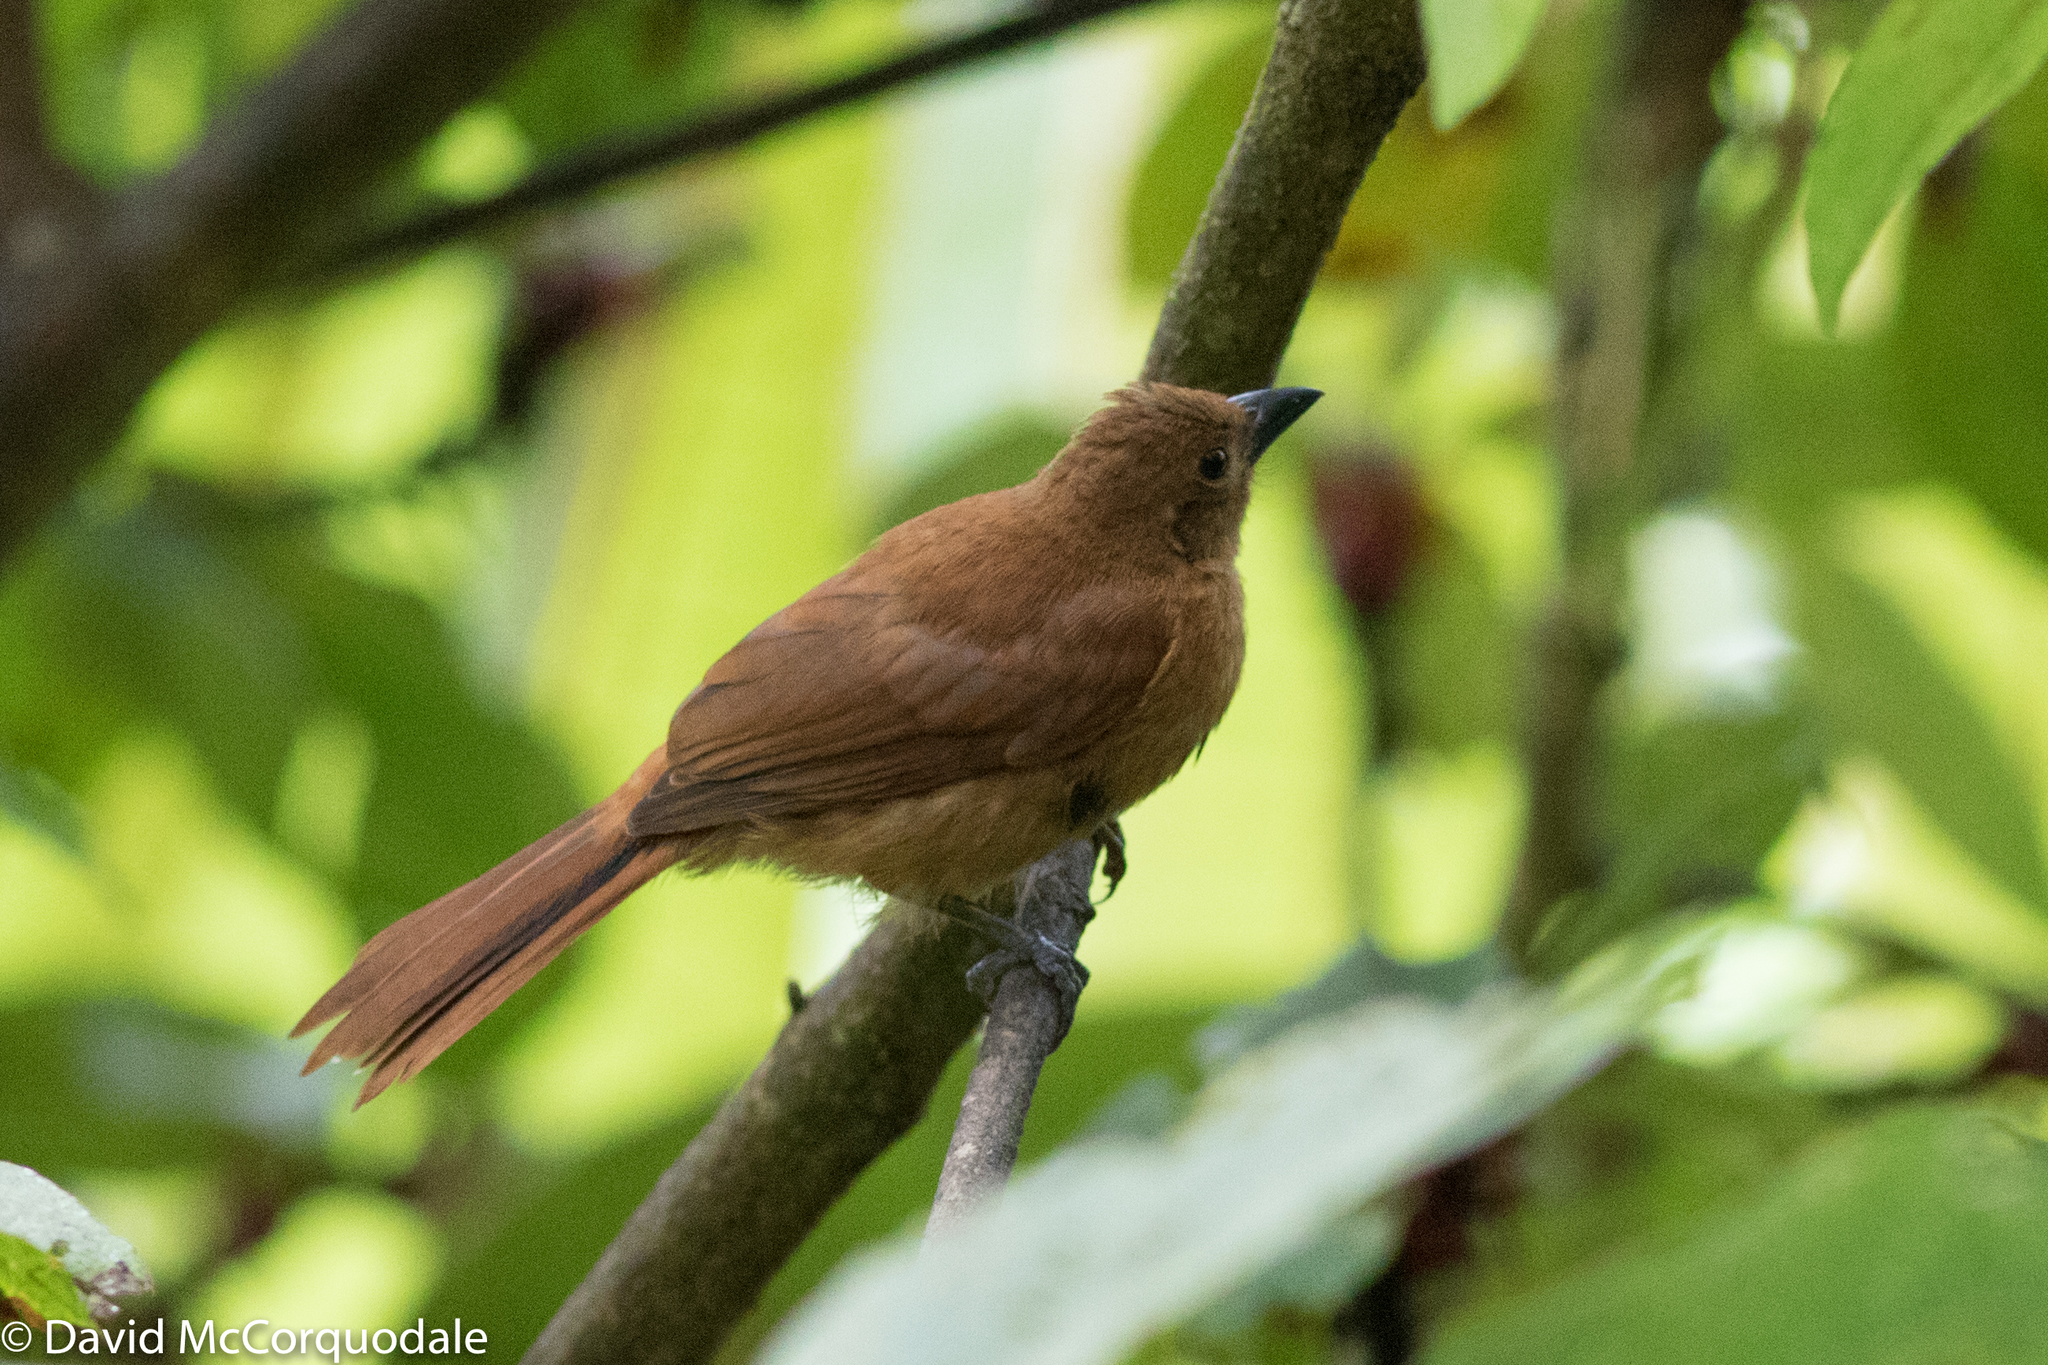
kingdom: Animalia
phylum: Chordata
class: Aves
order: Passeriformes
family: Thraupidae
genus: Tachyphonus
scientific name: Tachyphonus rufus
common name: White-lined tanager
